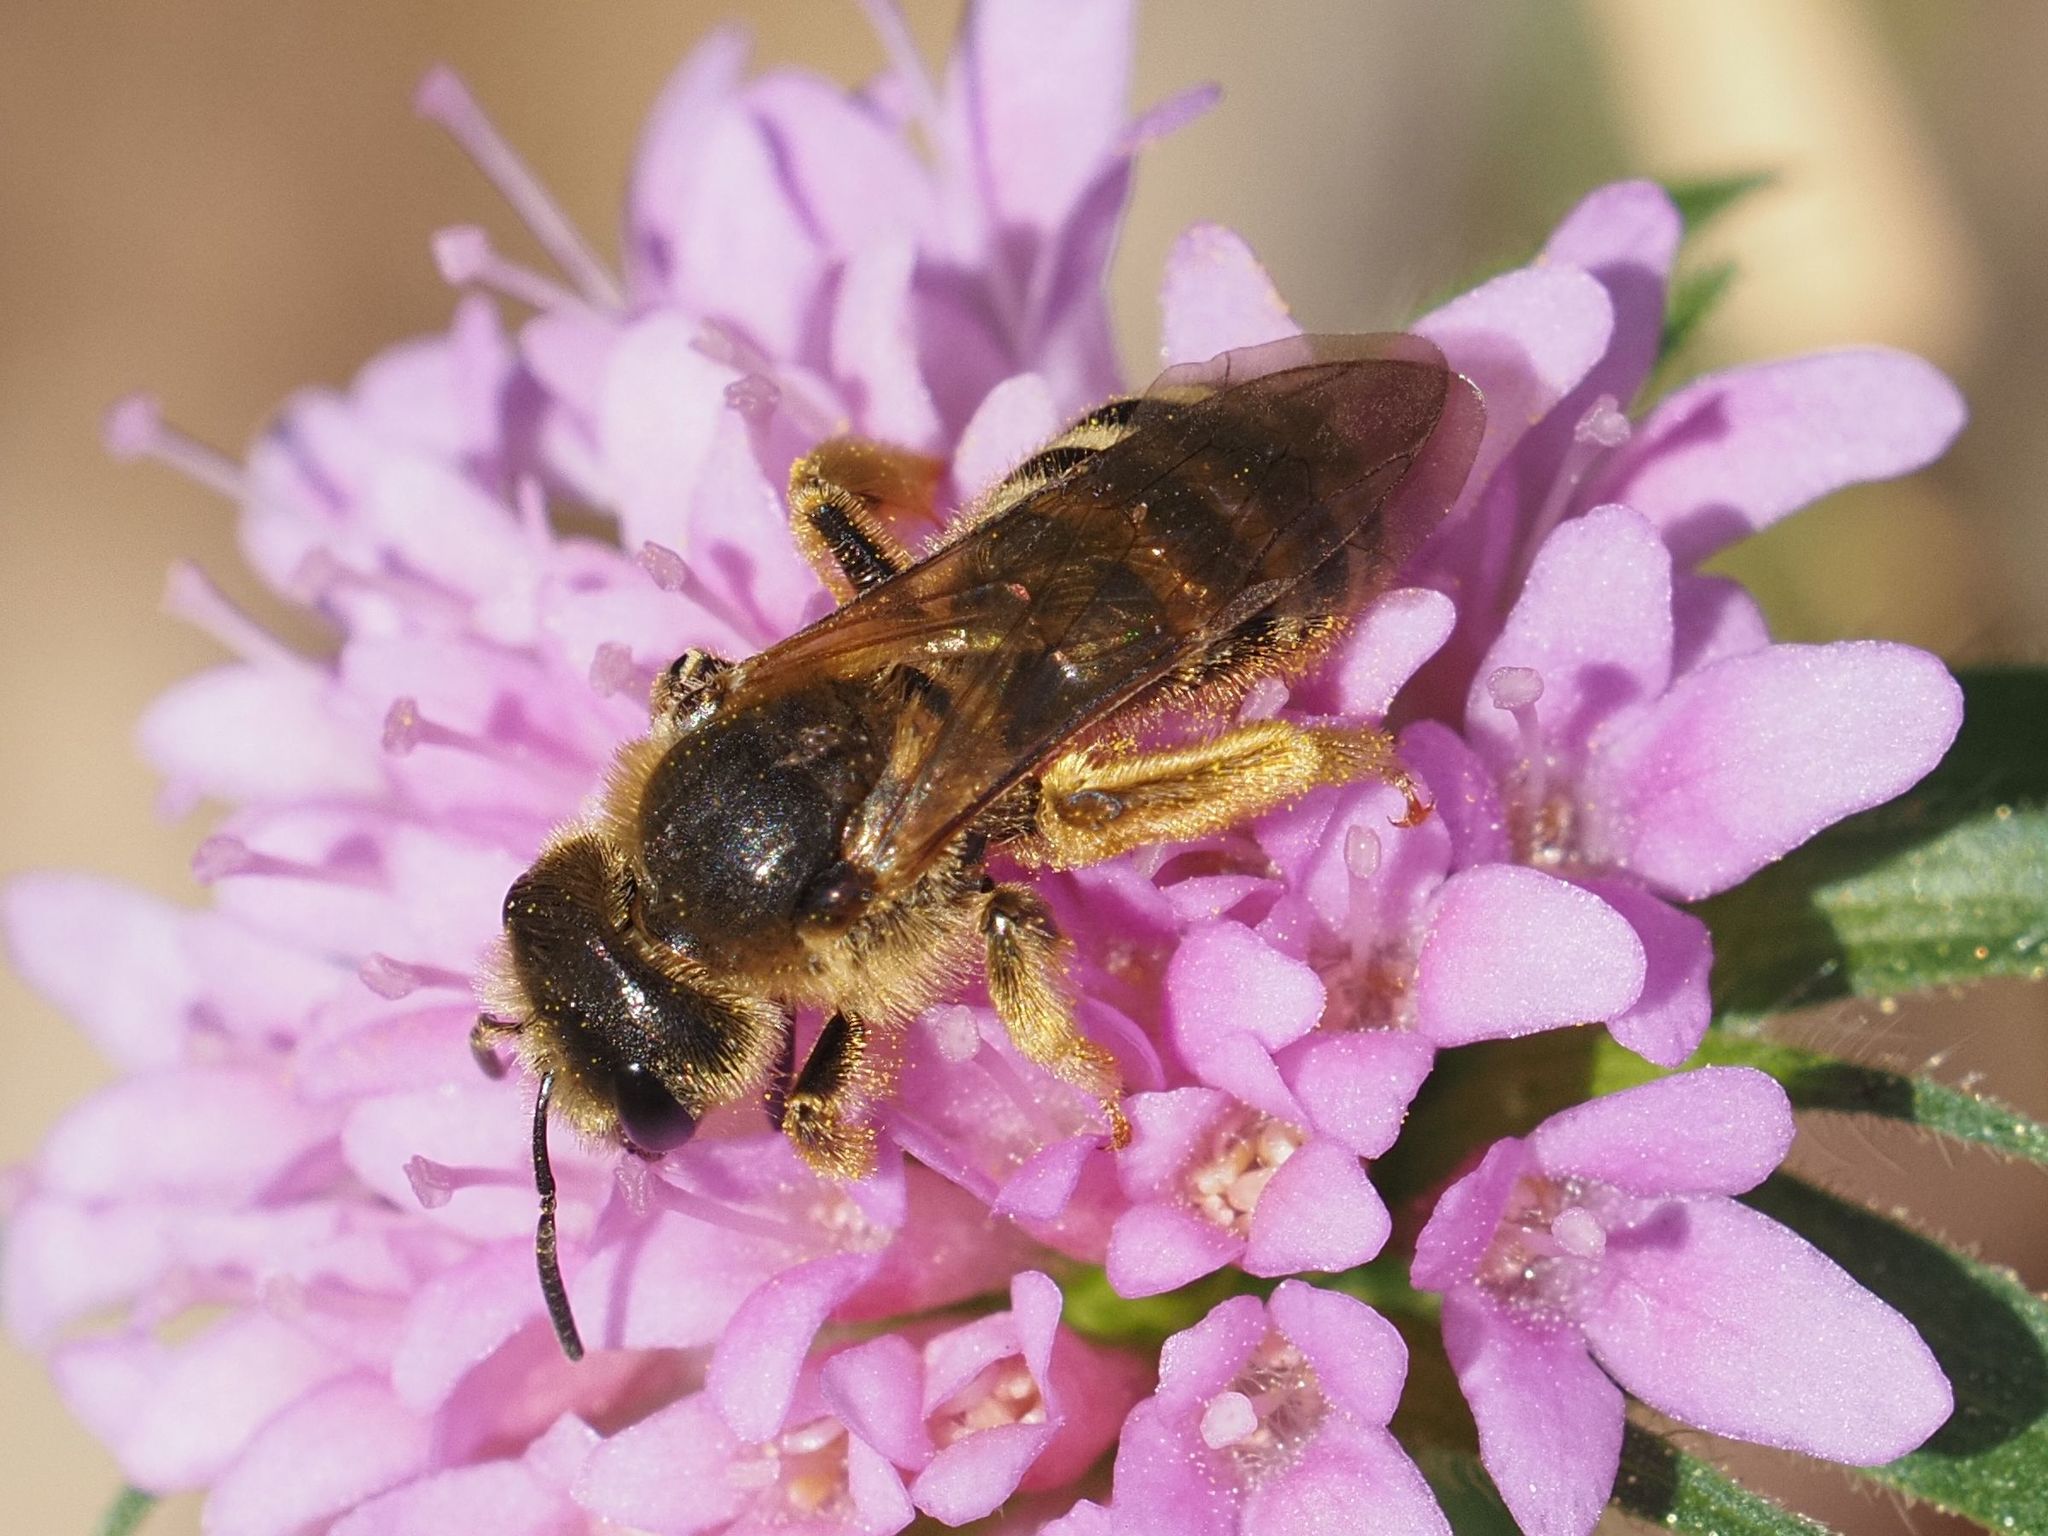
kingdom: Animalia
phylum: Arthropoda
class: Insecta
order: Hymenoptera
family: Halictidae
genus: Halictus
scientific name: Halictus scabiosae
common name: Great banded furrow bee
